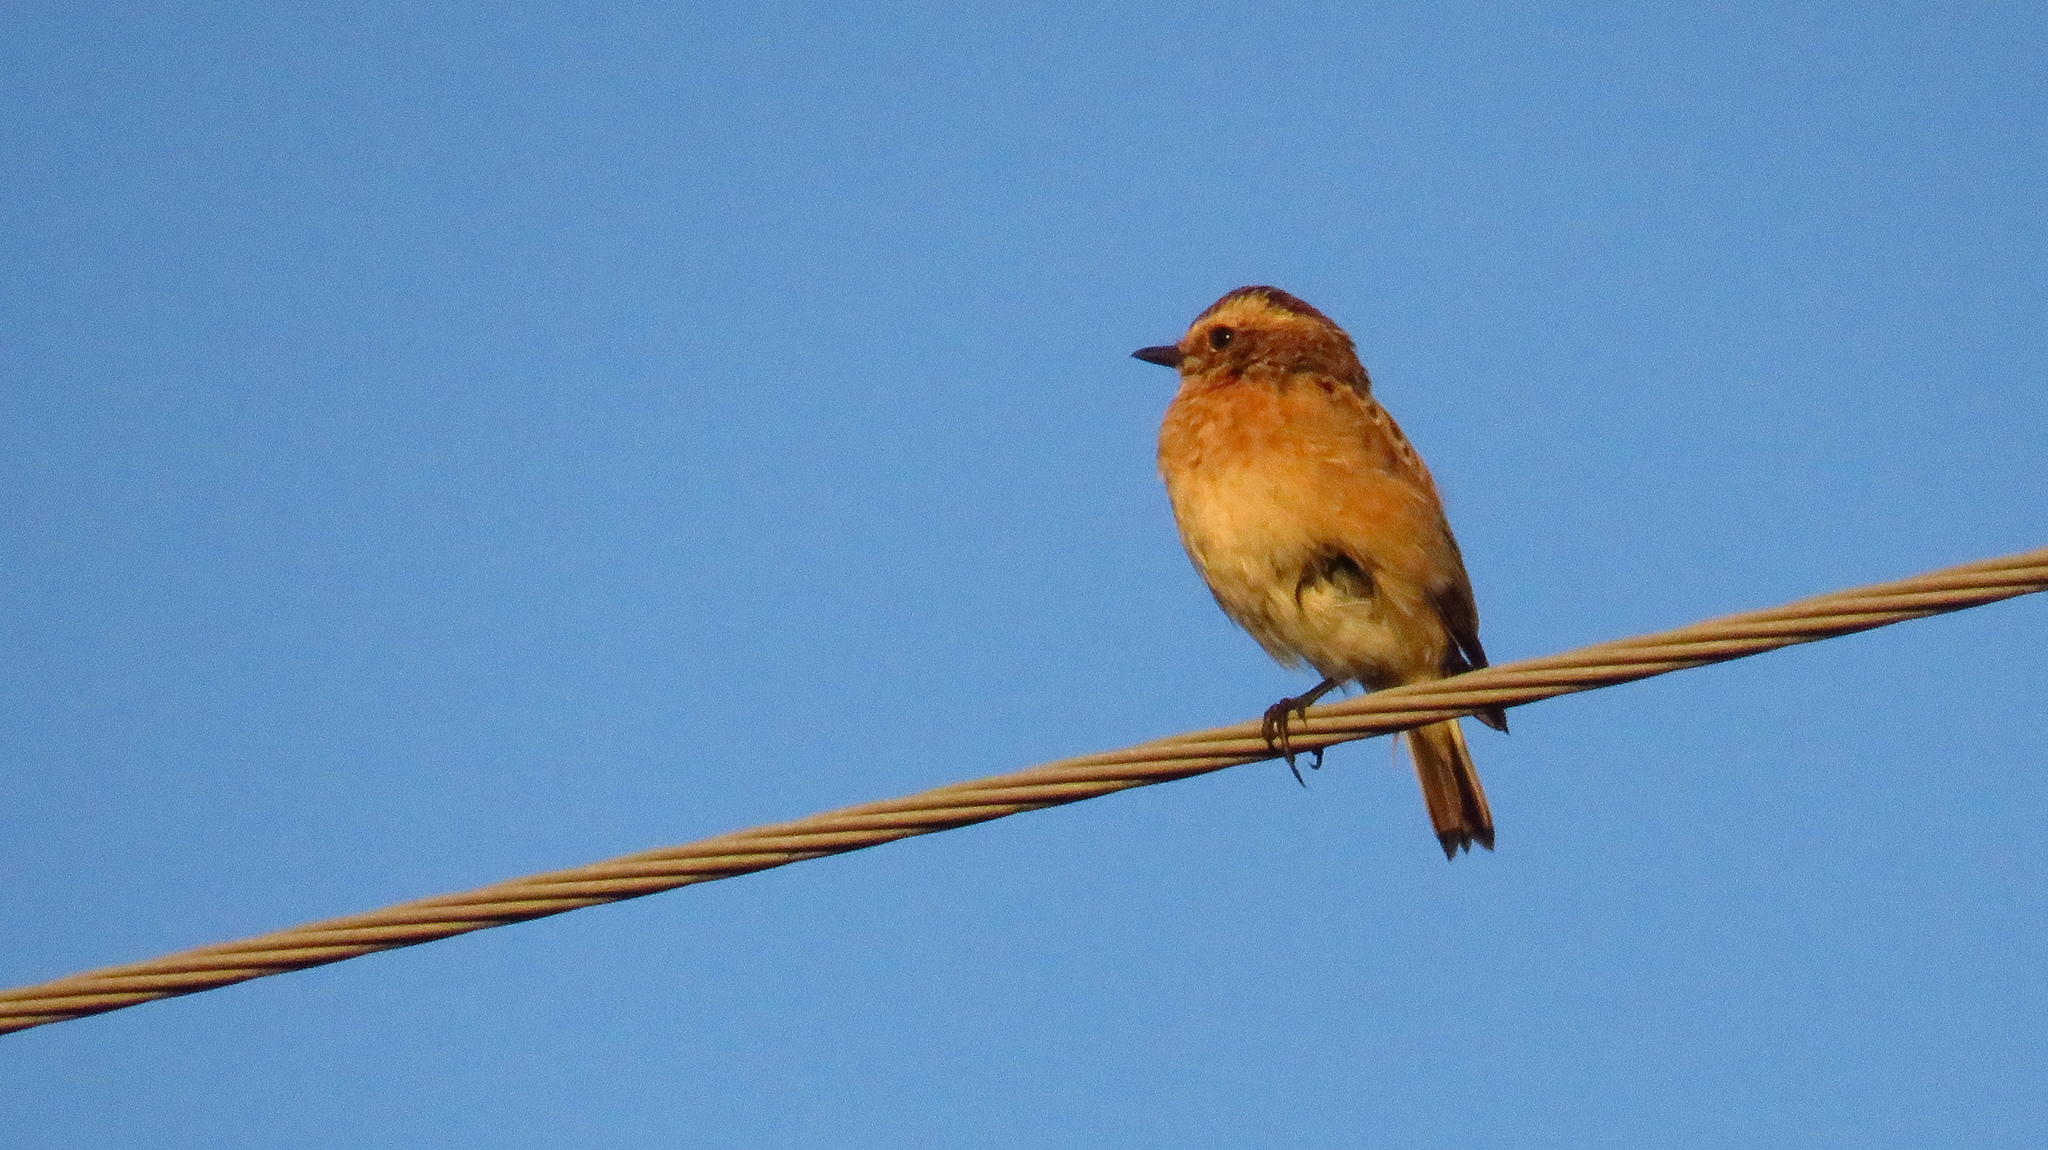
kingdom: Animalia
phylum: Chordata
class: Aves
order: Passeriformes
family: Muscicapidae
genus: Saxicola
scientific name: Saxicola rubetra
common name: Whinchat
